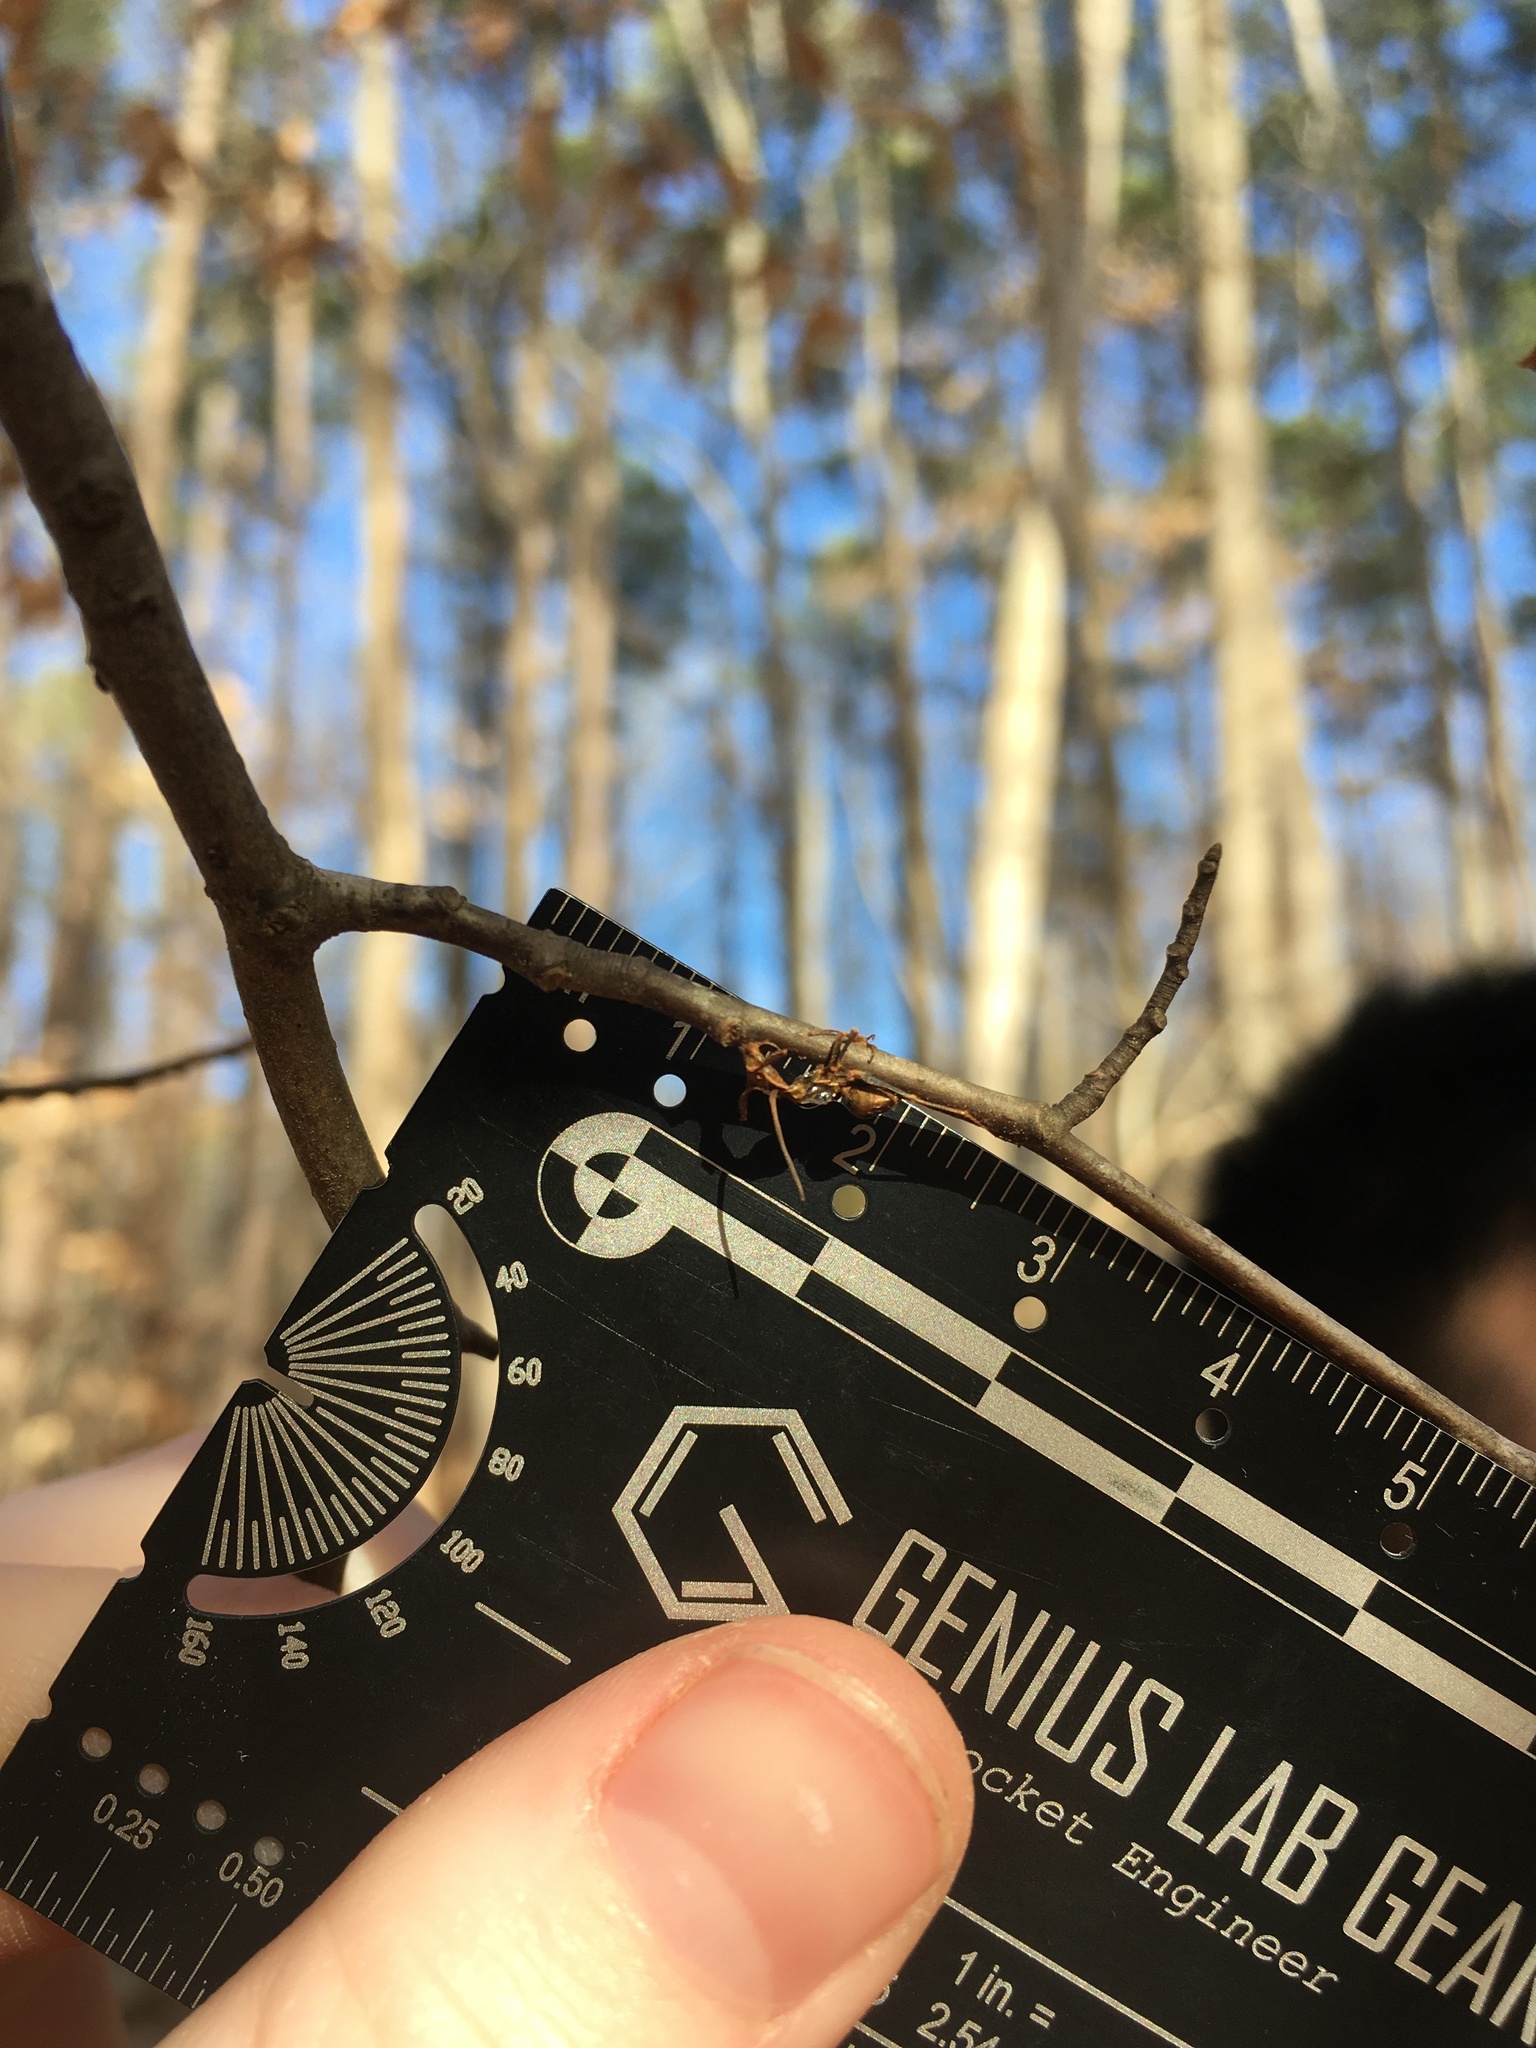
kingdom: Fungi
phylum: Ascomycota
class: Sordariomycetes
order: Hypocreales
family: Ophiocordycipitaceae
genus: Ophiocordyceps
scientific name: Ophiocordyceps kimflemingiae
